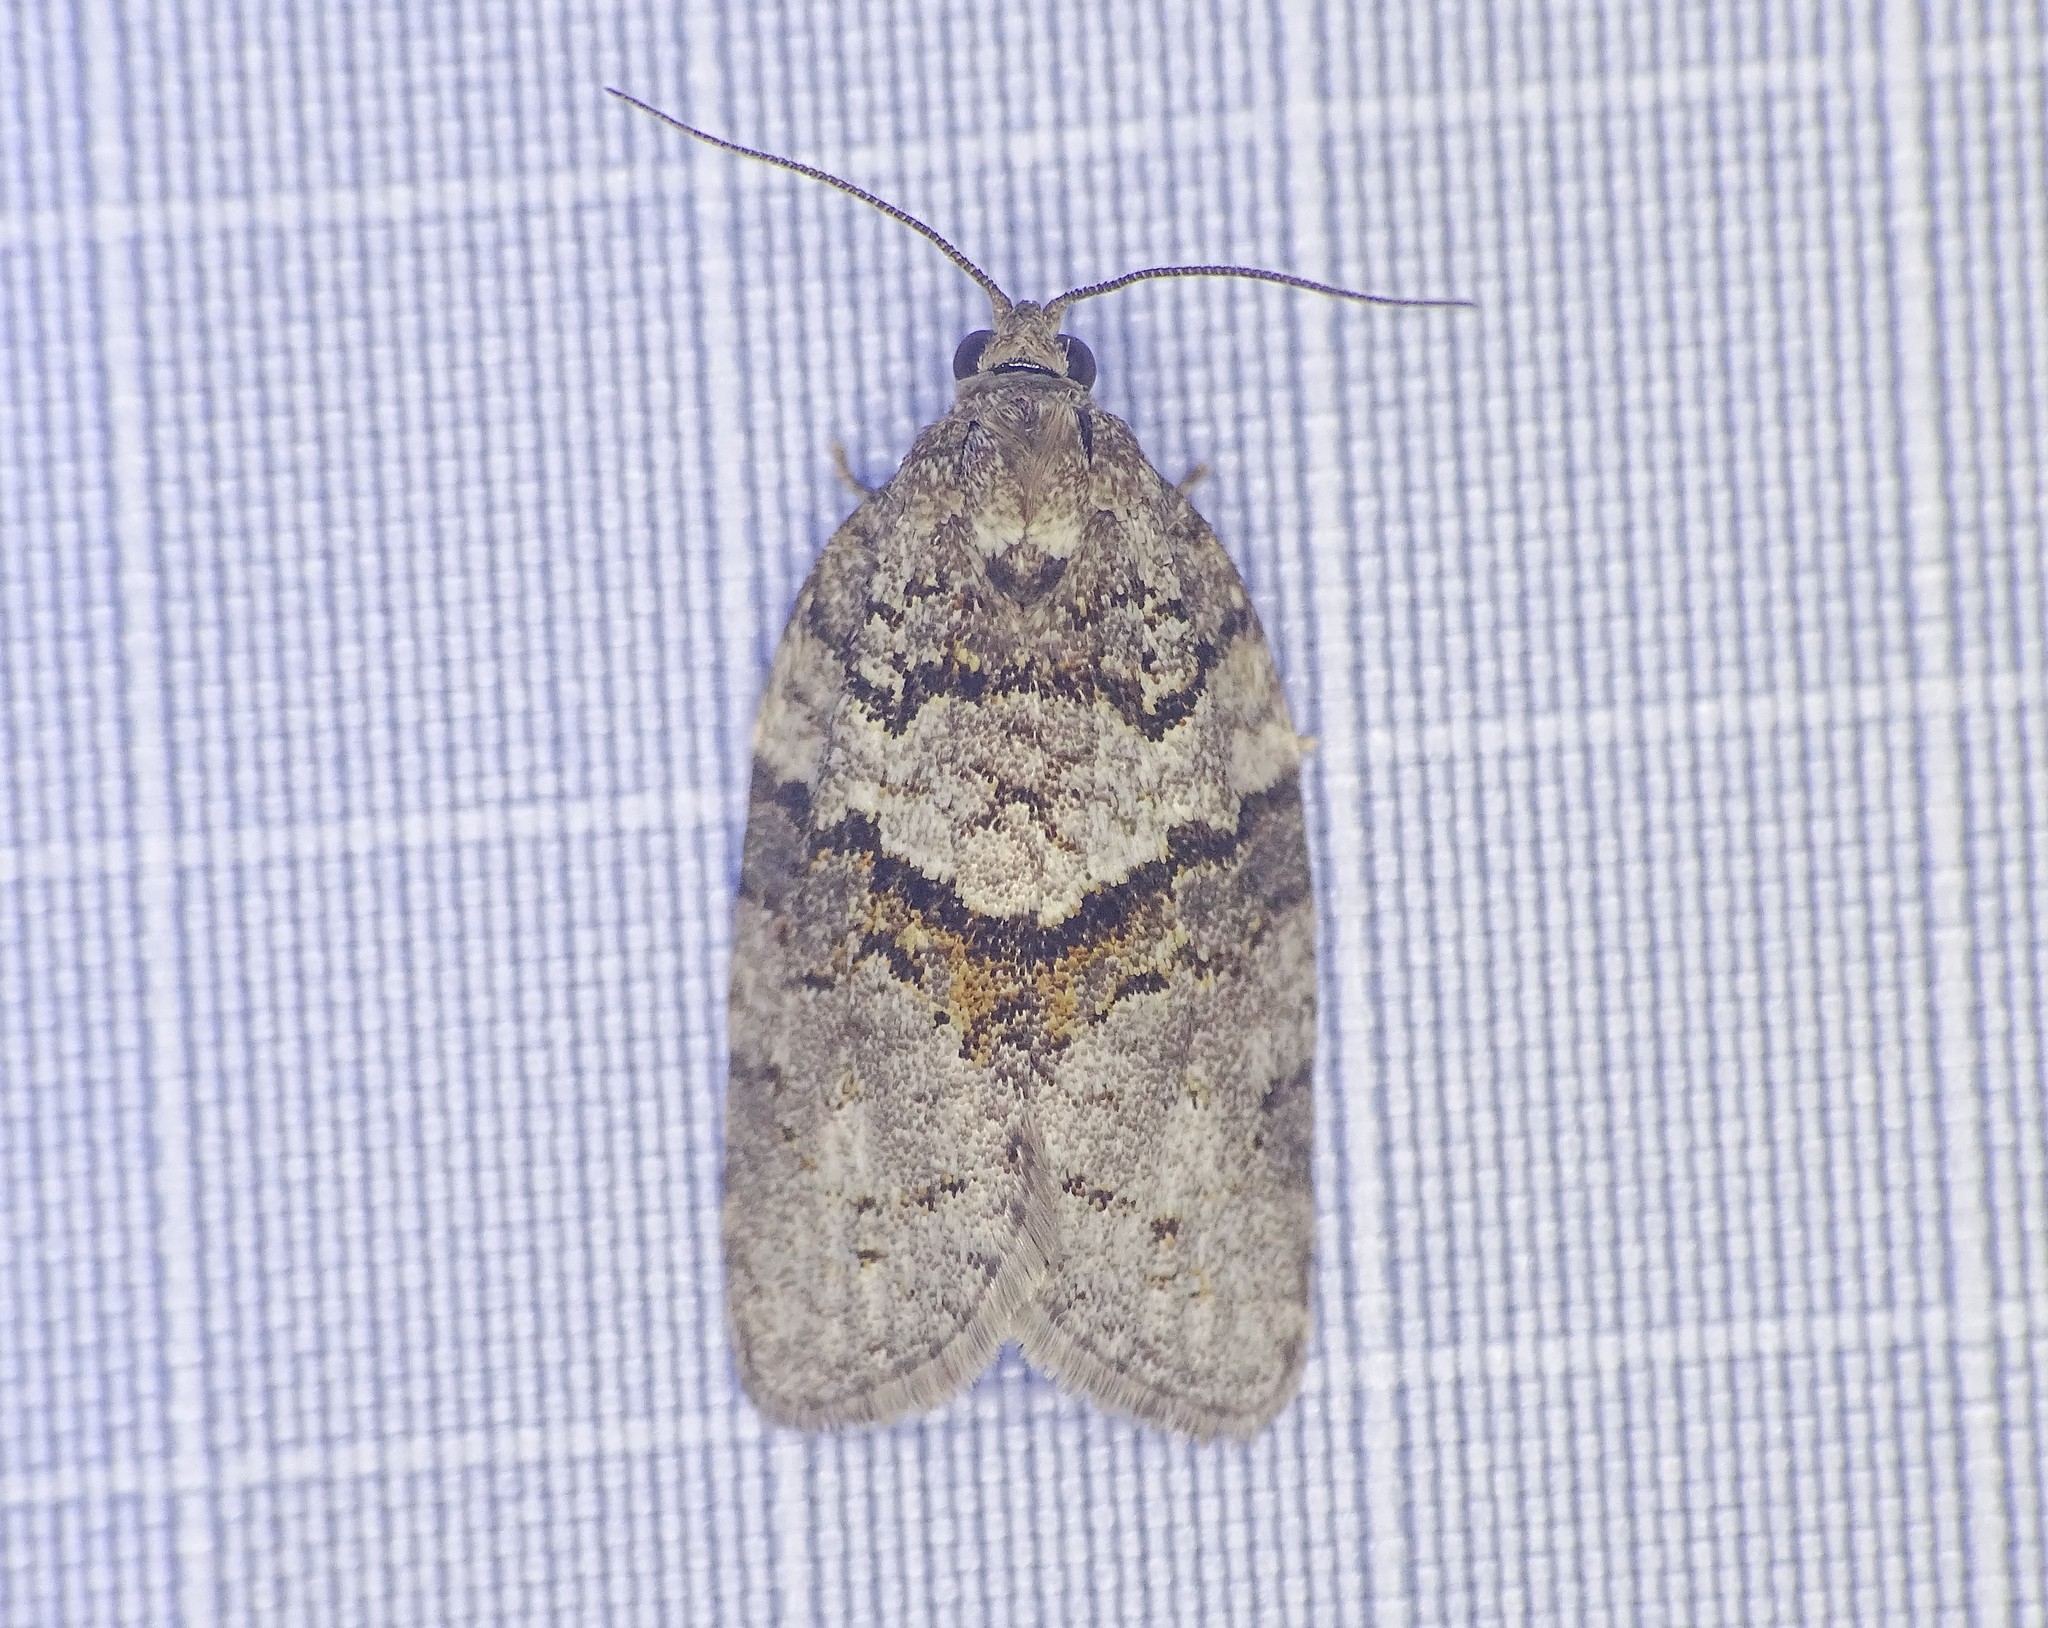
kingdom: Animalia
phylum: Arthropoda
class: Insecta
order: Lepidoptera
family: Tortricidae
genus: Syndemis
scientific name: Syndemis afflictana
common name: Gray leafroller moth
